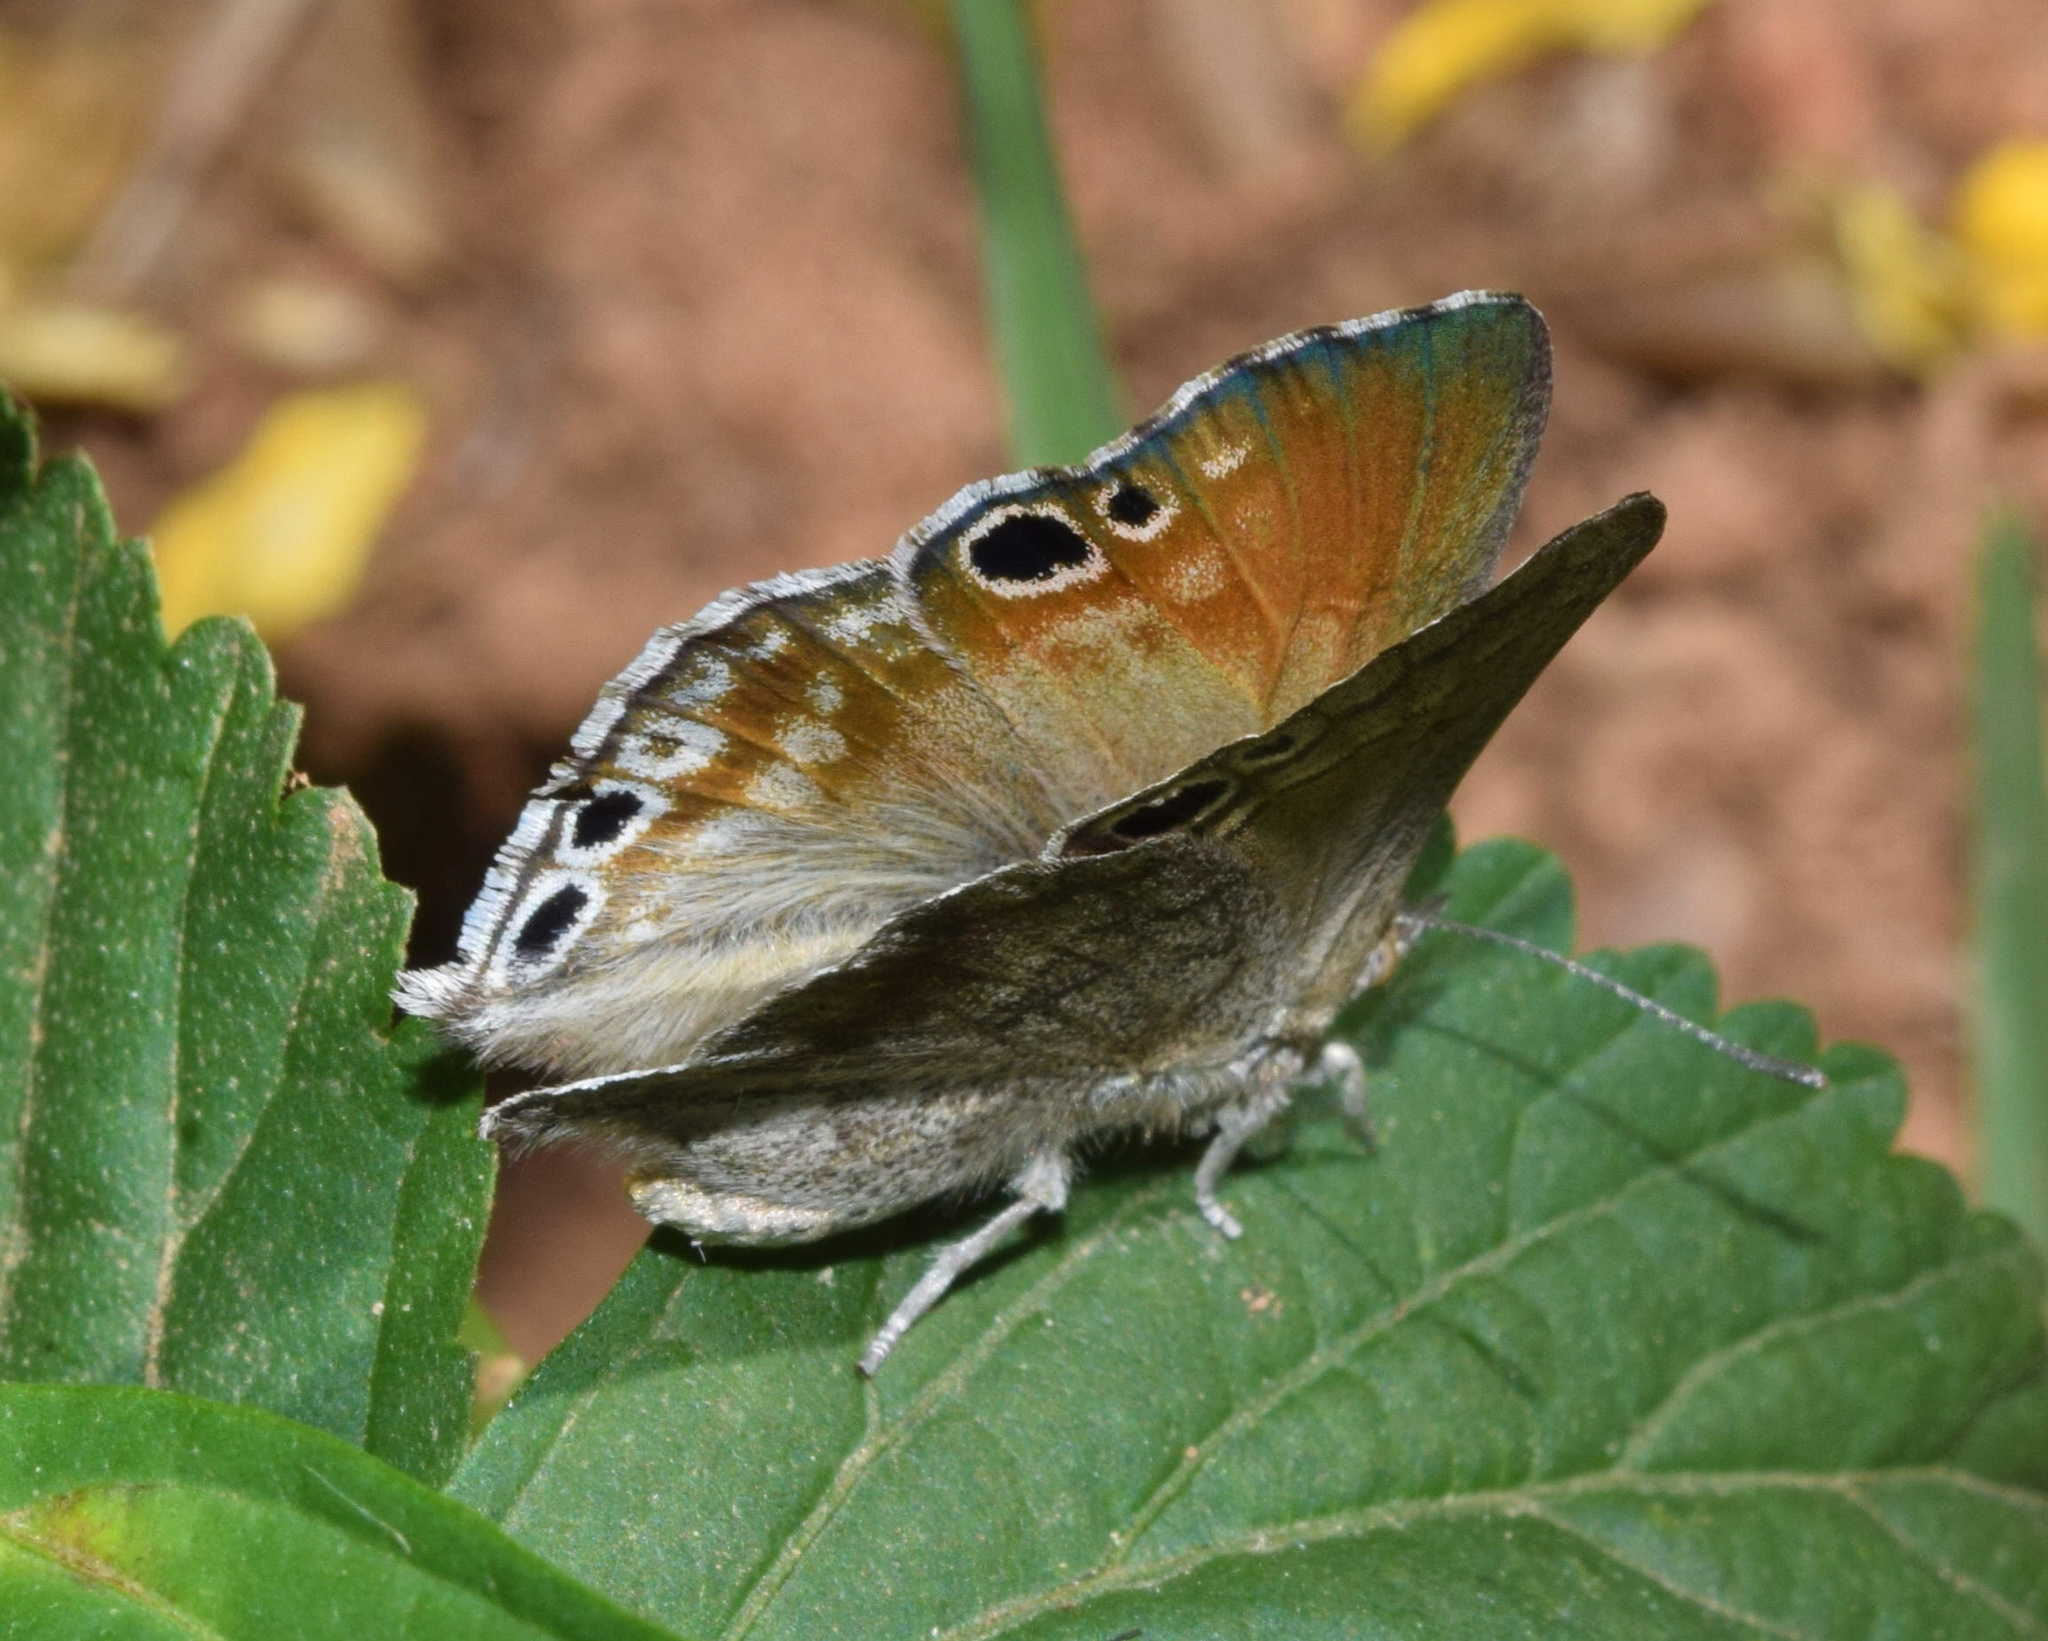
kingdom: Animalia
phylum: Arthropoda
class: Insecta
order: Lepidoptera
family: Lycaenidae
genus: Leptomyrina
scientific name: Leptomyrina gorgias
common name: Common black-eye
